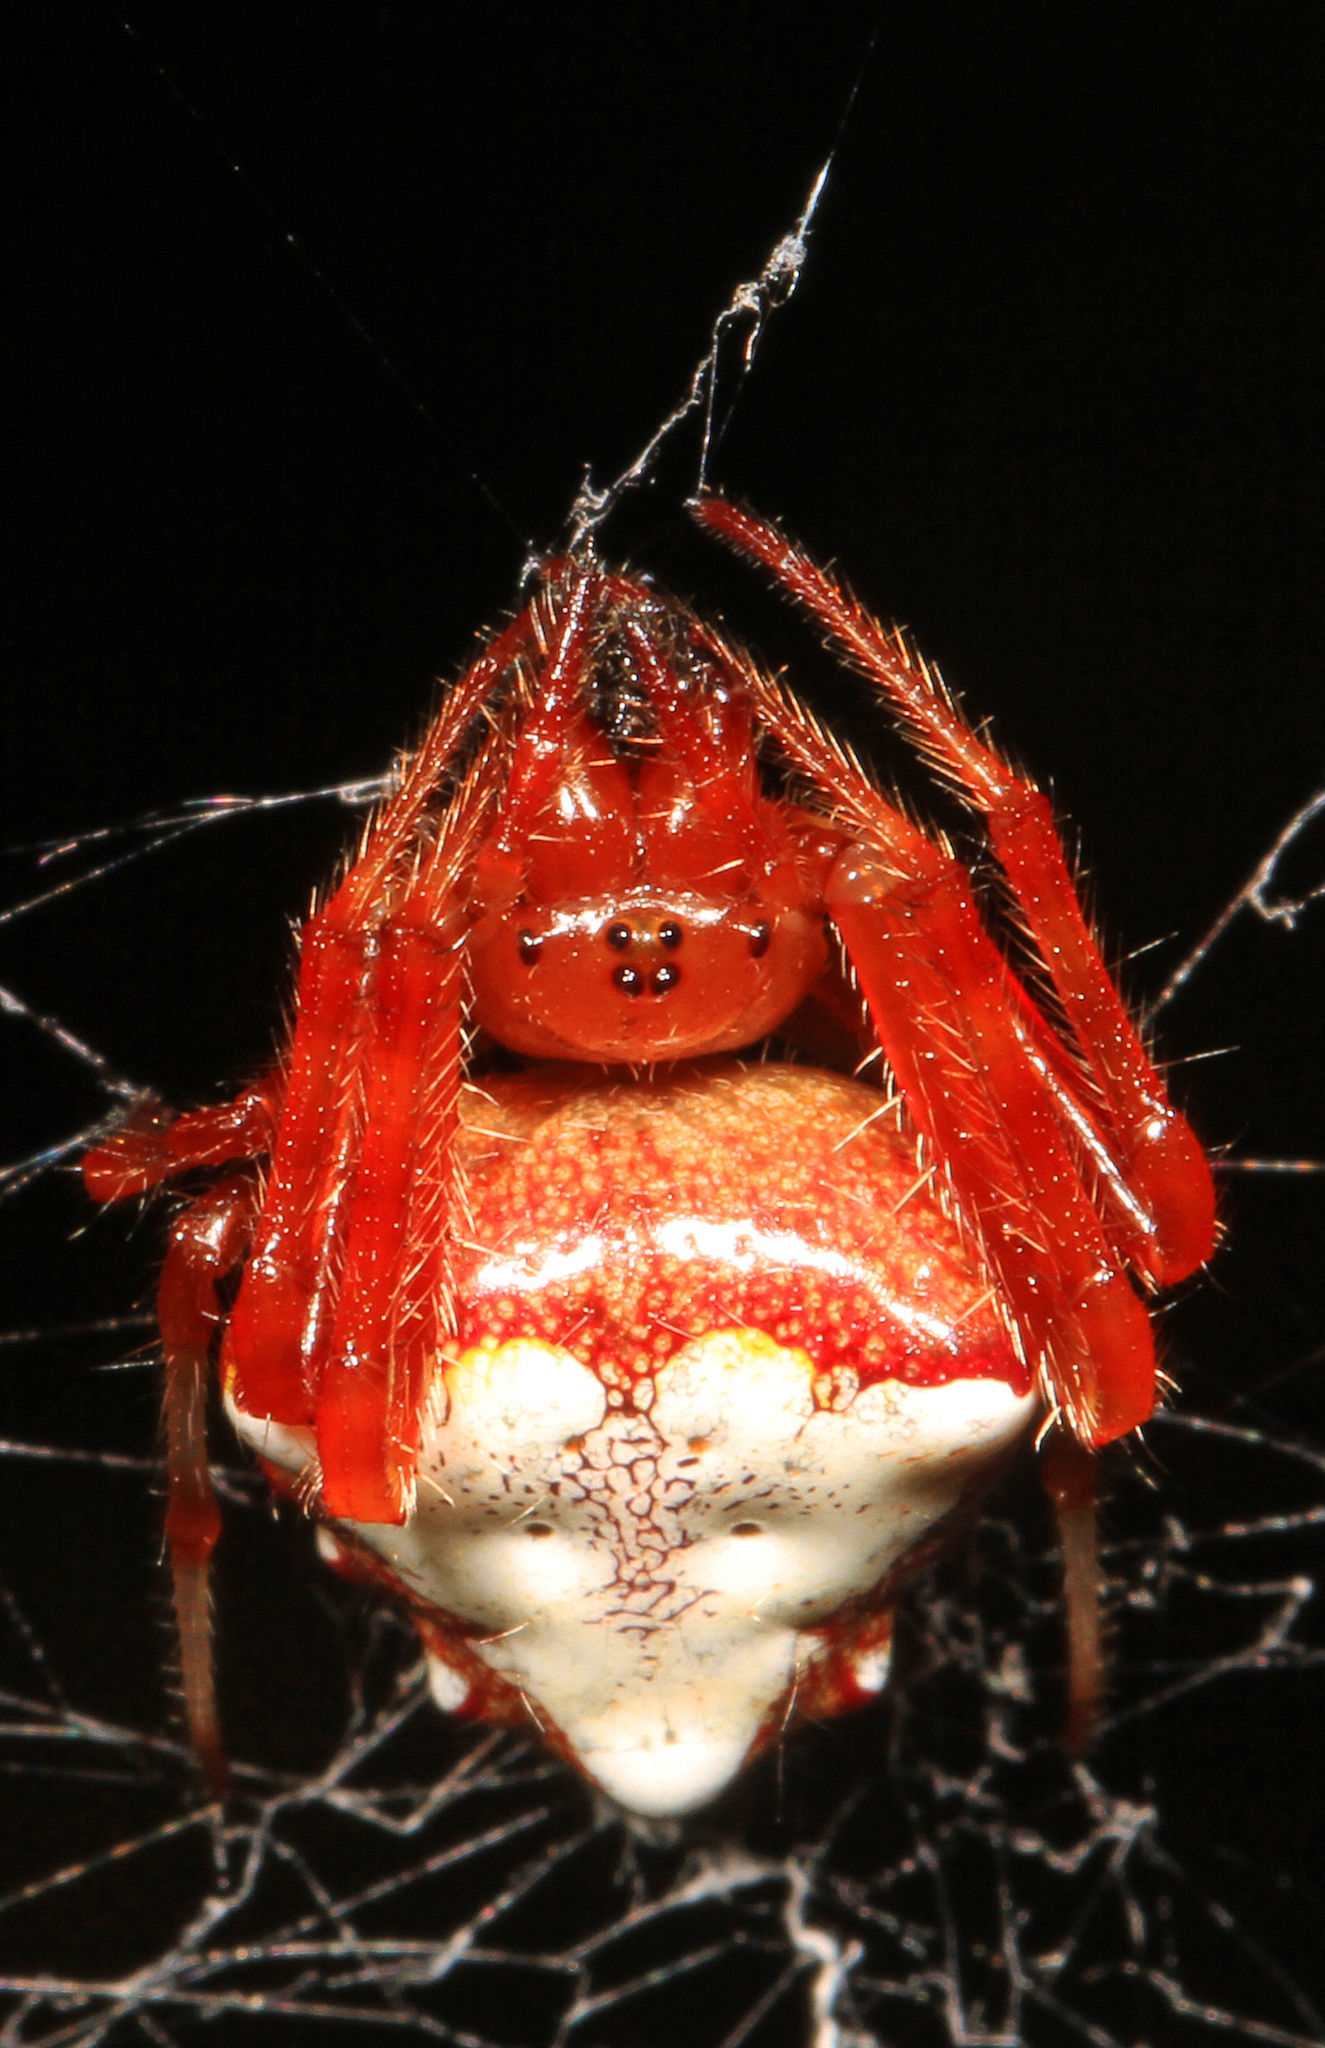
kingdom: Animalia
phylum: Arthropoda
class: Arachnida
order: Araneae
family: Araneidae
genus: Verrucosa
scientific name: Verrucosa arenata
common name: Orb weavers
